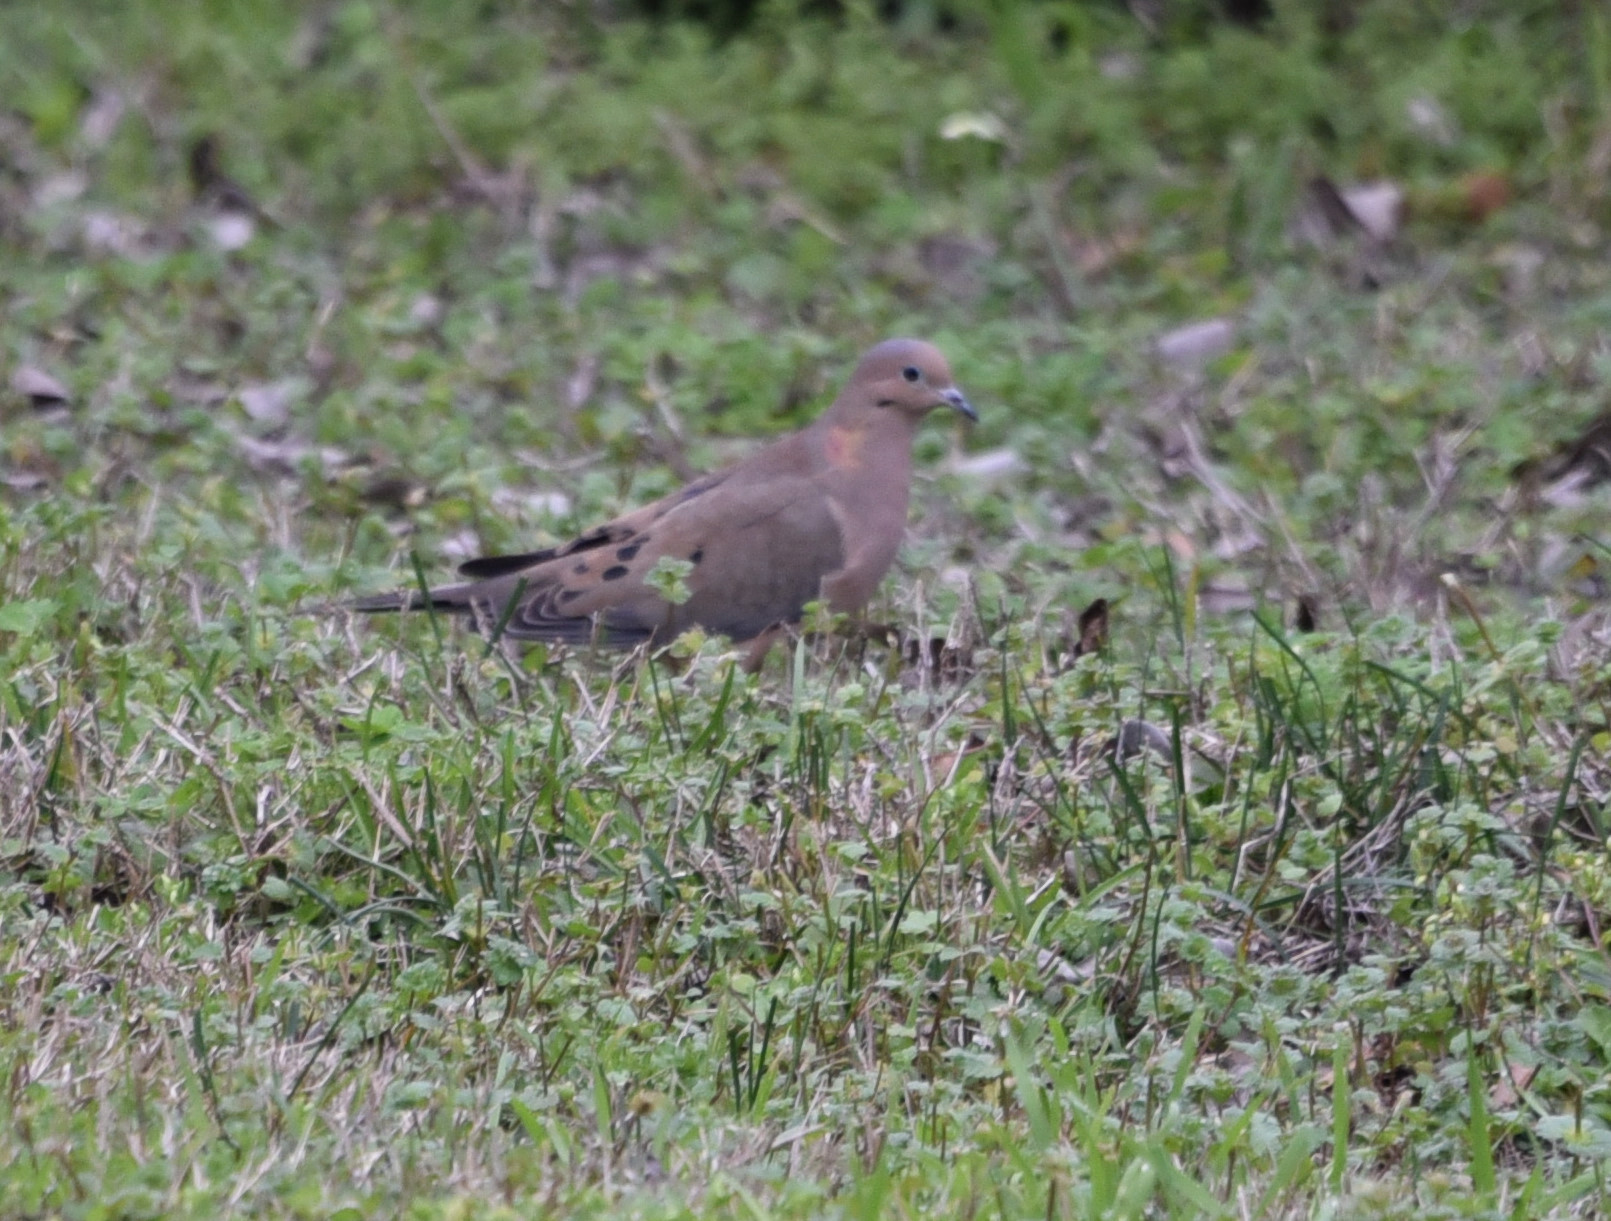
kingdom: Animalia
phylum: Chordata
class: Aves
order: Columbiformes
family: Columbidae
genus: Zenaida
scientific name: Zenaida macroura
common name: Mourning dove
